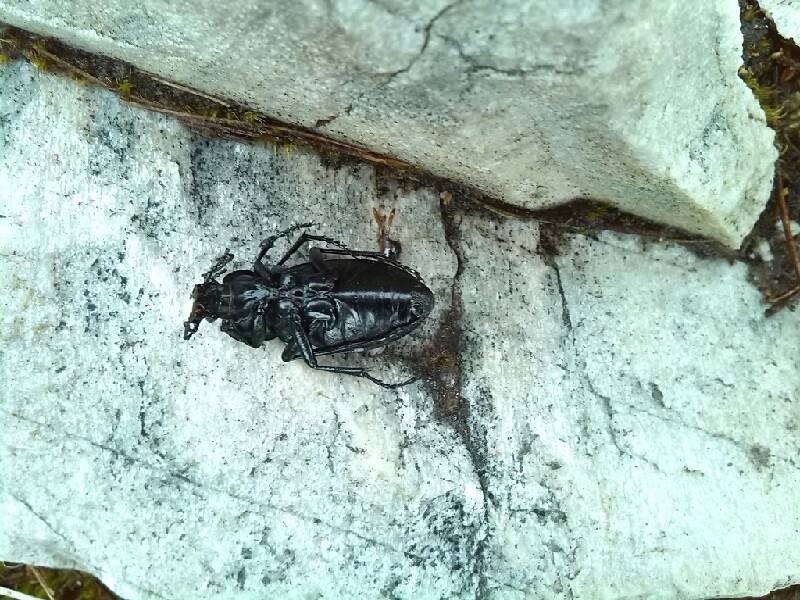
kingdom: Animalia
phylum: Arthropoda
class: Insecta
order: Coleoptera
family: Carabidae
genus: Carabus
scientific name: Carabus
